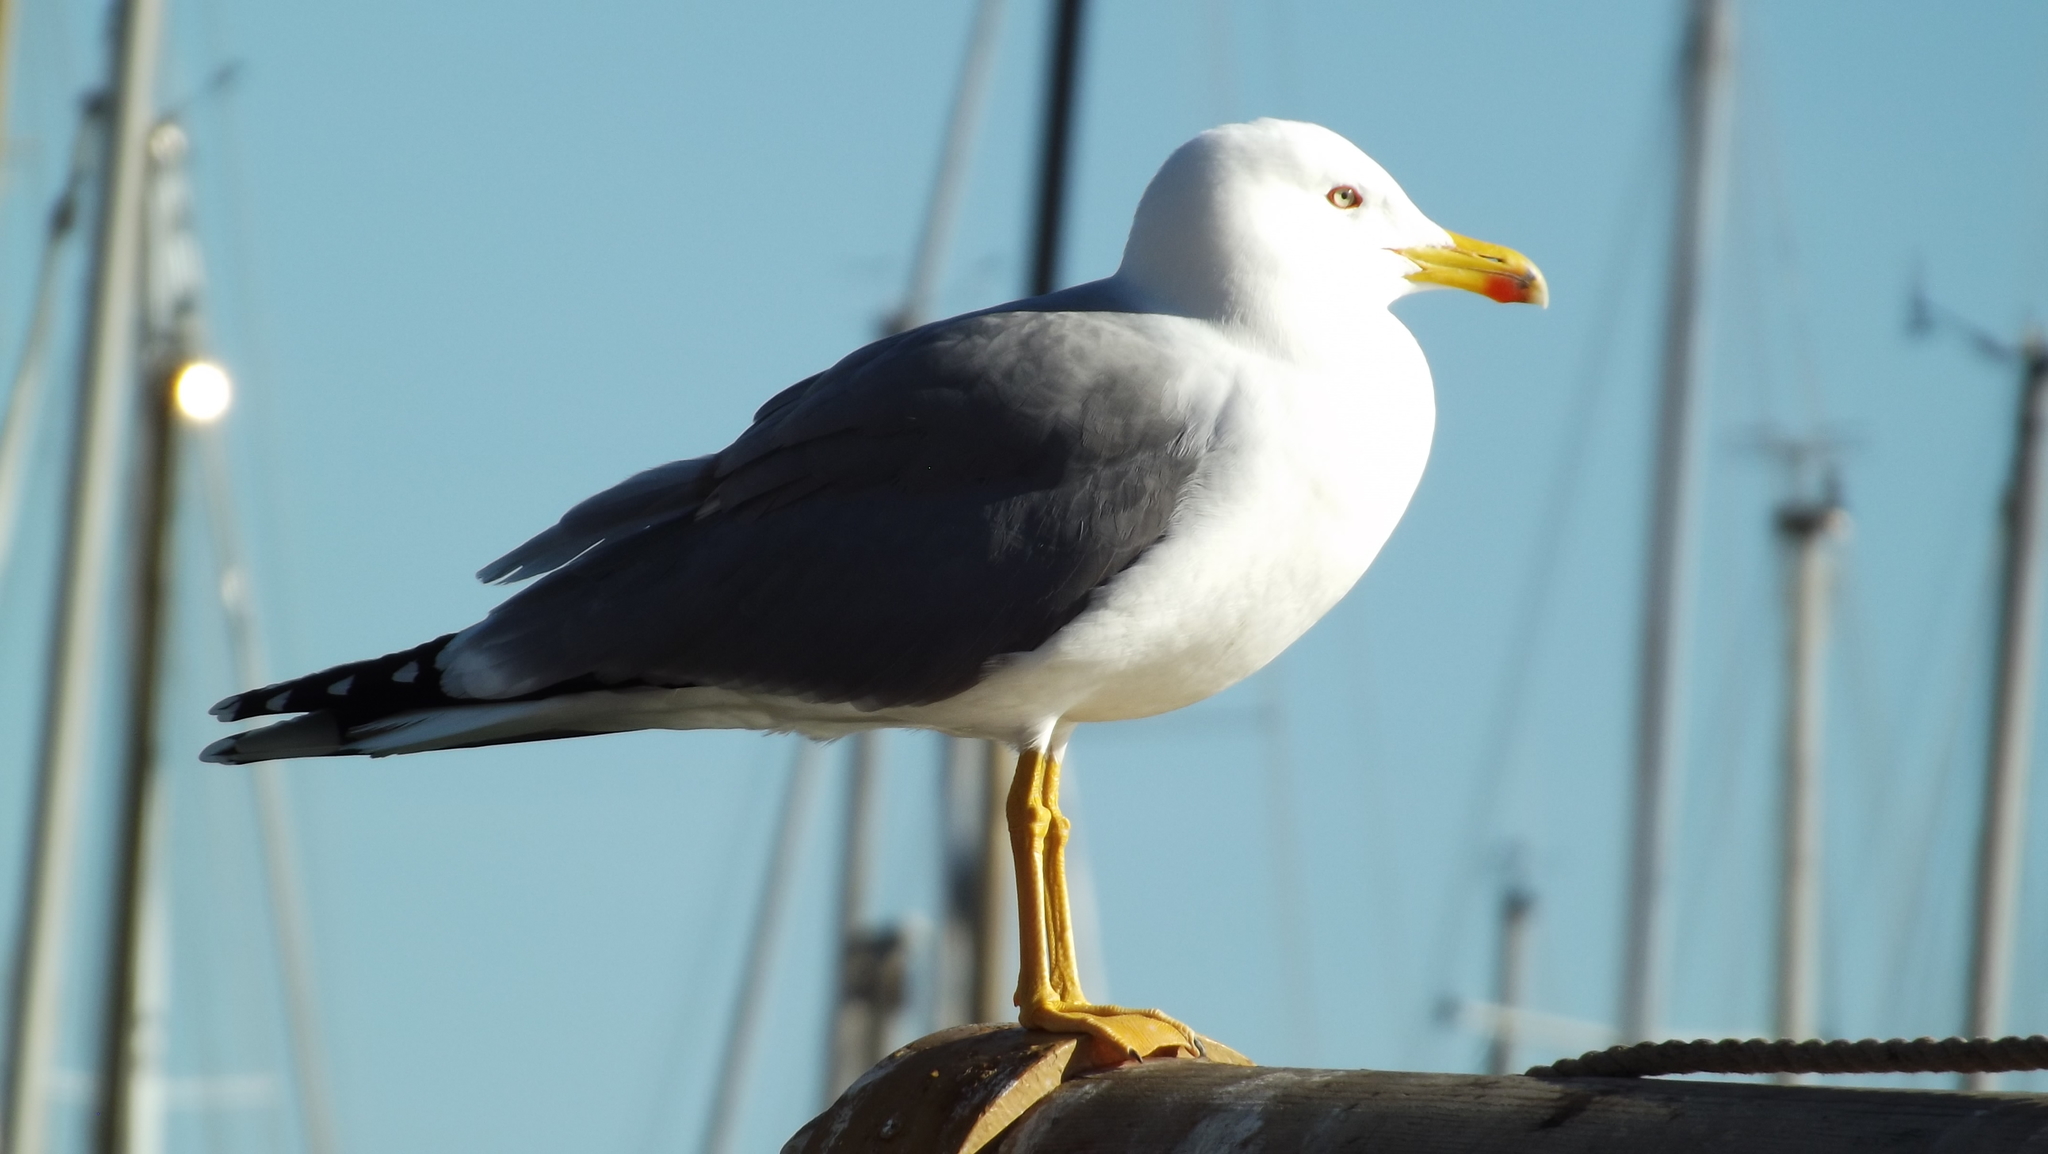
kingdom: Animalia
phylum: Chordata
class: Aves
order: Charadriiformes
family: Laridae
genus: Larus
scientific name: Larus michahellis
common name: Yellow-legged gull
